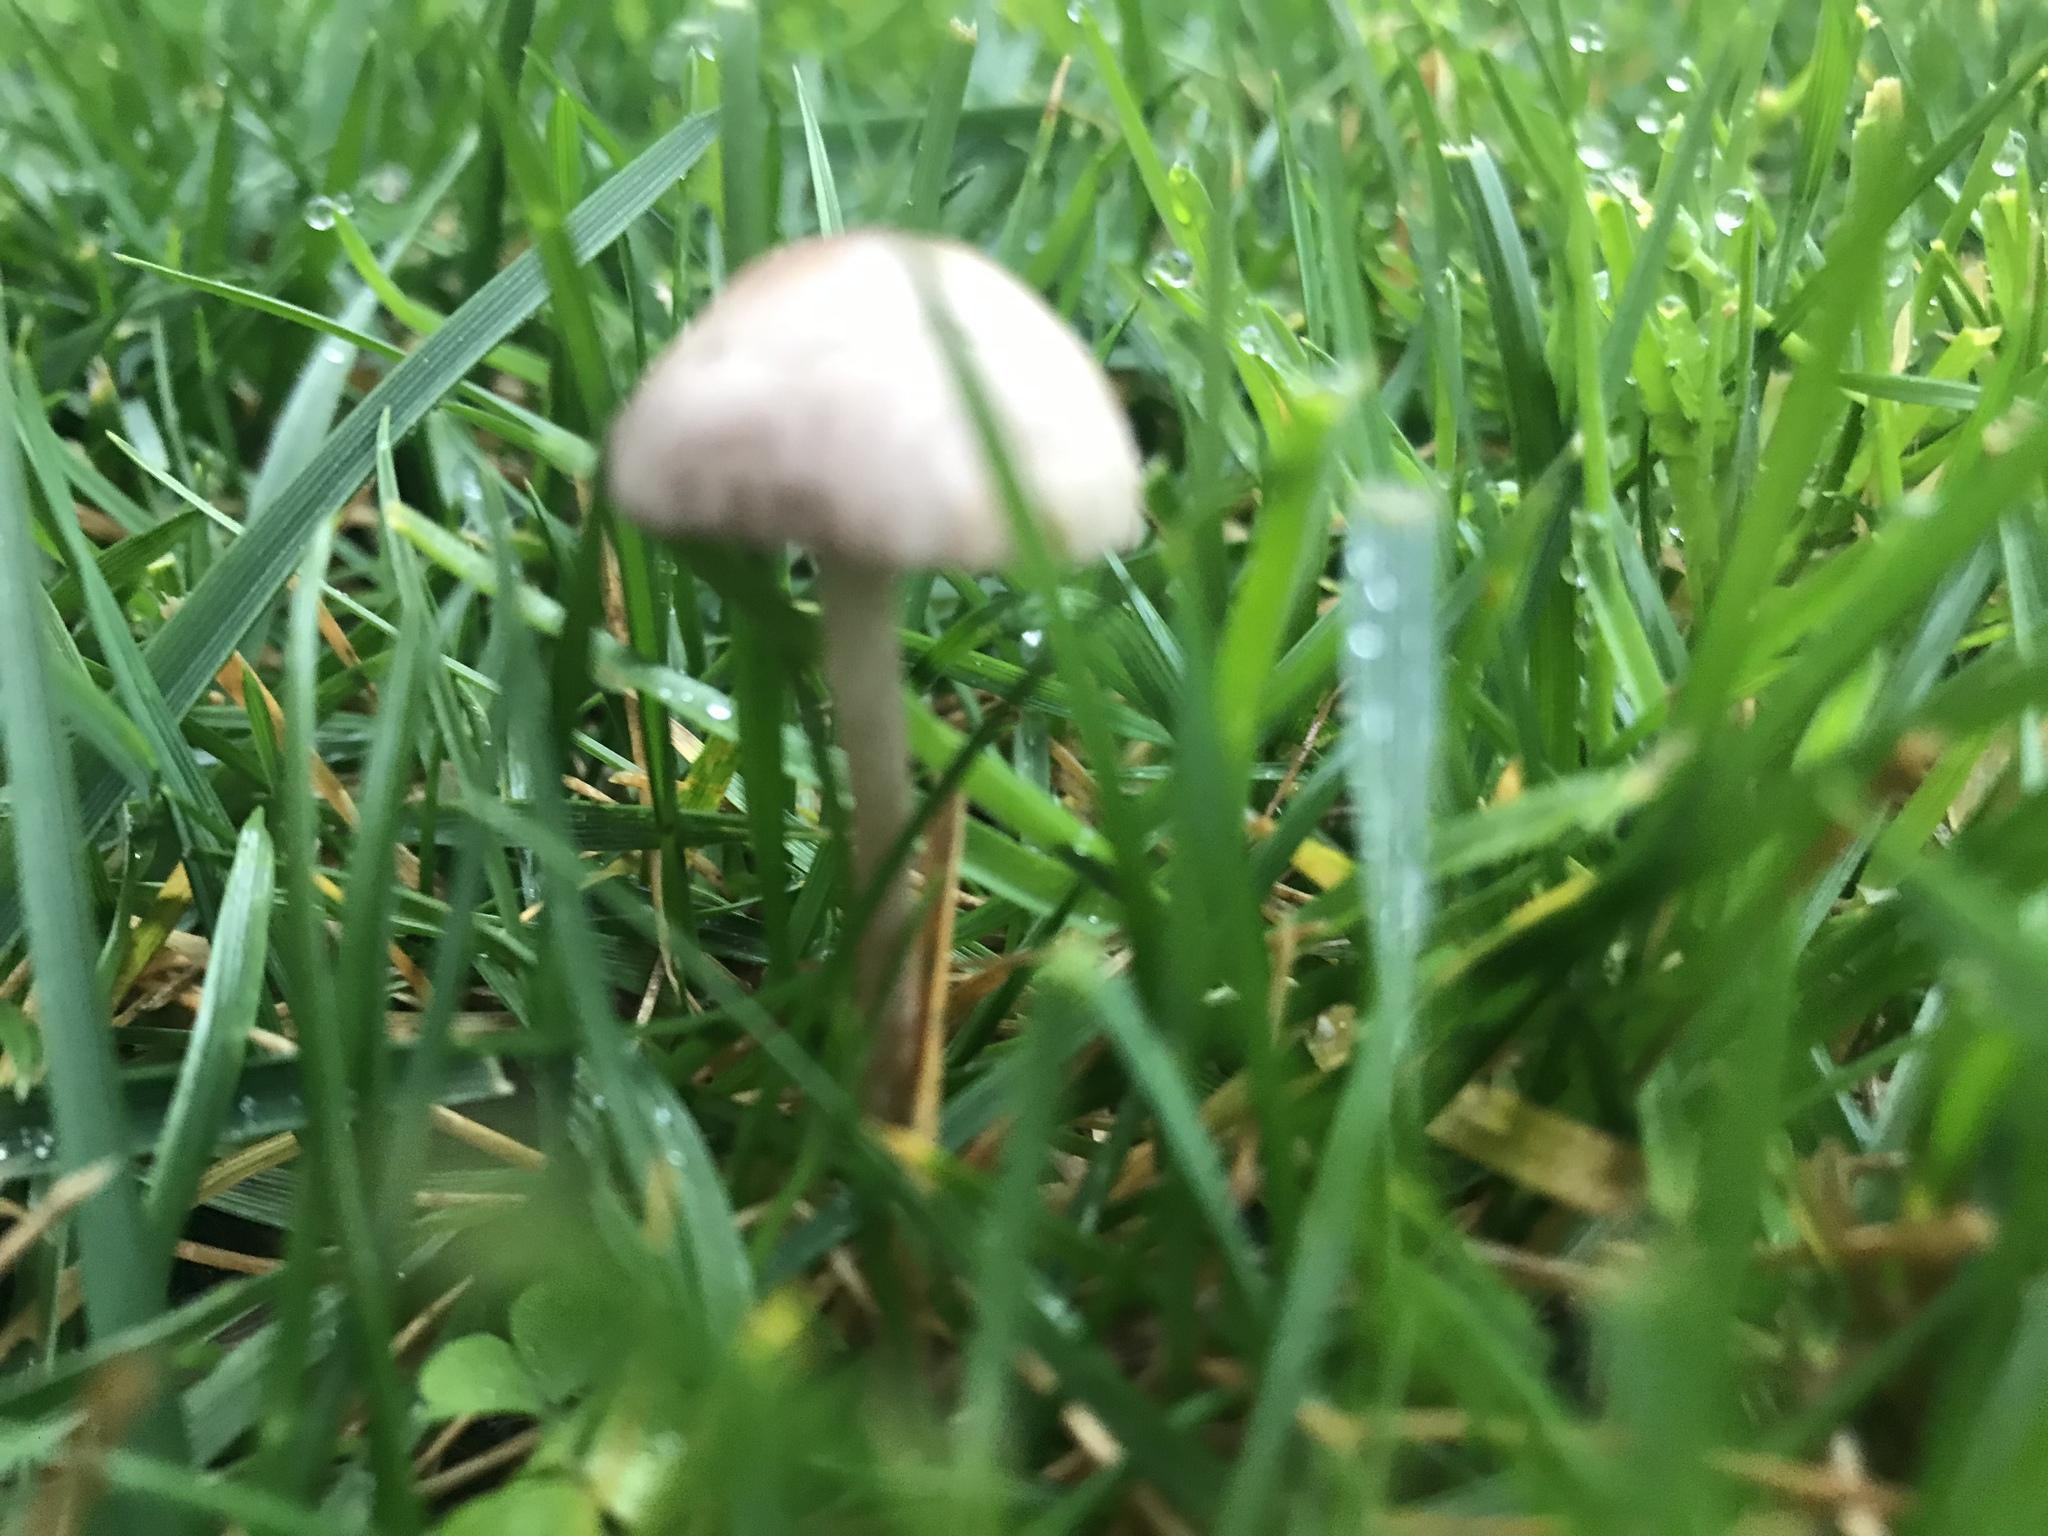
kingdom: Fungi
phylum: Basidiomycota
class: Agaricomycetes
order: Agaricales
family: Bolbitiaceae
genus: Panaeolina
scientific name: Panaeolina foenisecii
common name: Brown hay cap
